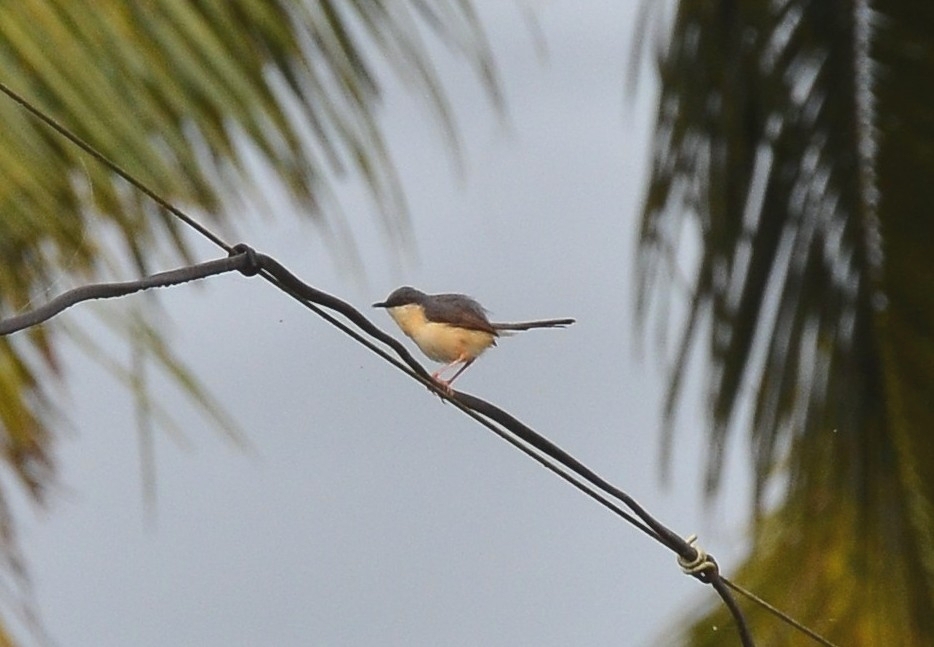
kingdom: Animalia
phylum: Chordata
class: Aves
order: Passeriformes
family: Cisticolidae
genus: Prinia
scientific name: Prinia socialis
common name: Ashy prinia
